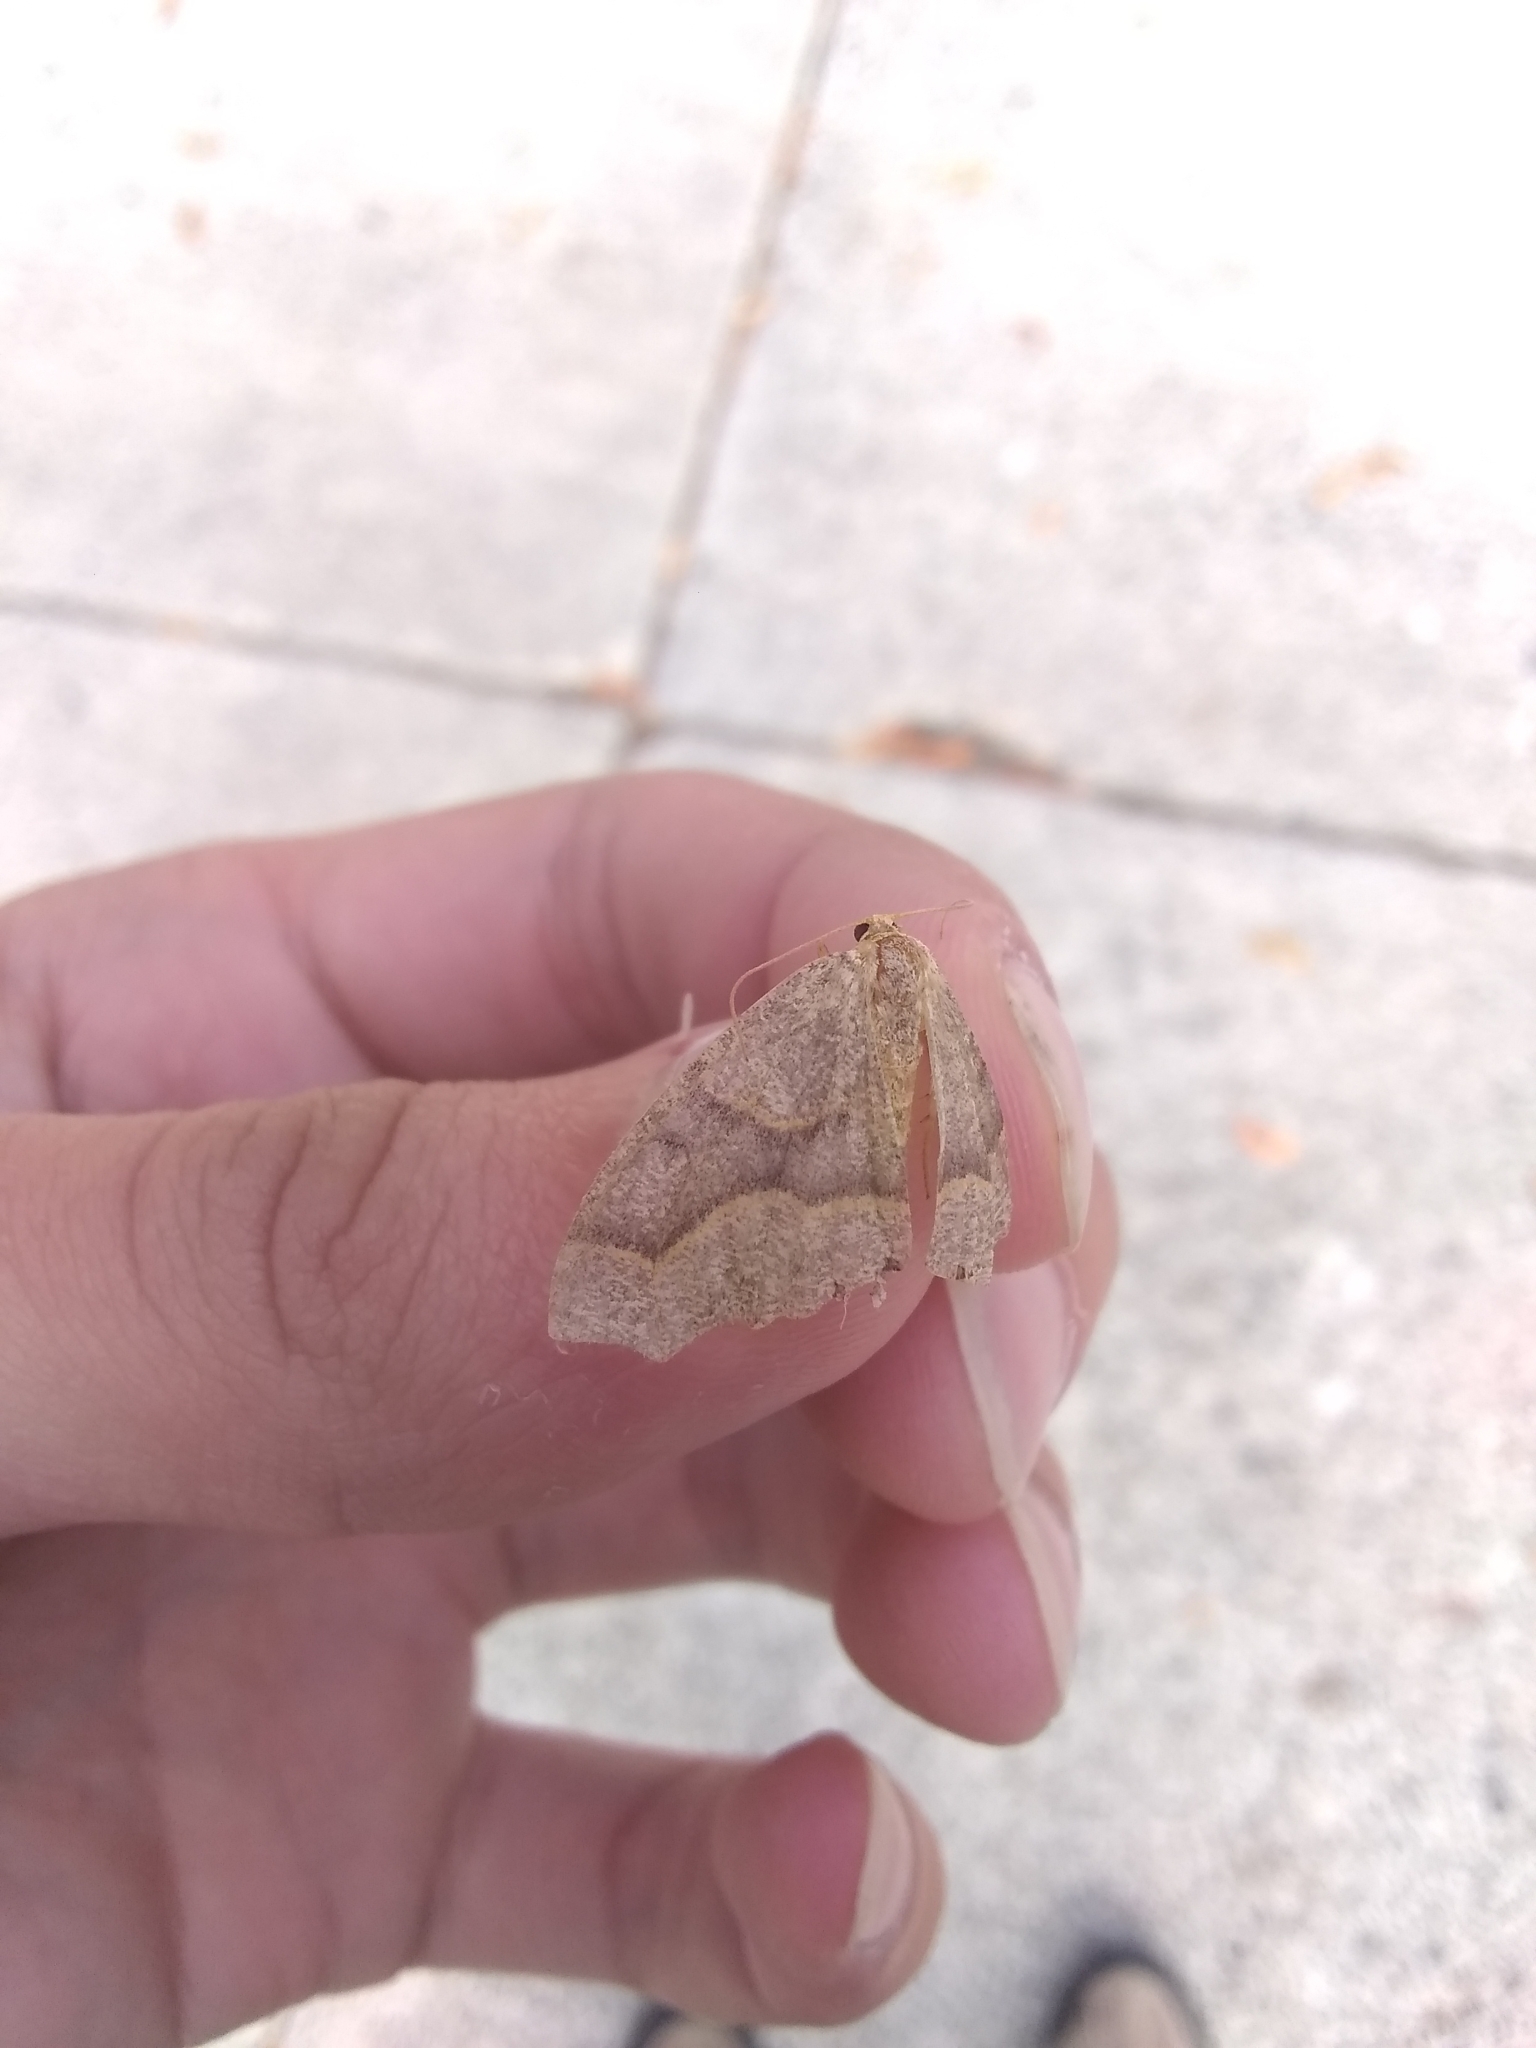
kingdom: Animalia
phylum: Arthropoda
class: Insecta
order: Lepidoptera
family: Geometridae
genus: Lambdina
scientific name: Lambdina fiscellaria
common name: Hemlock looper
